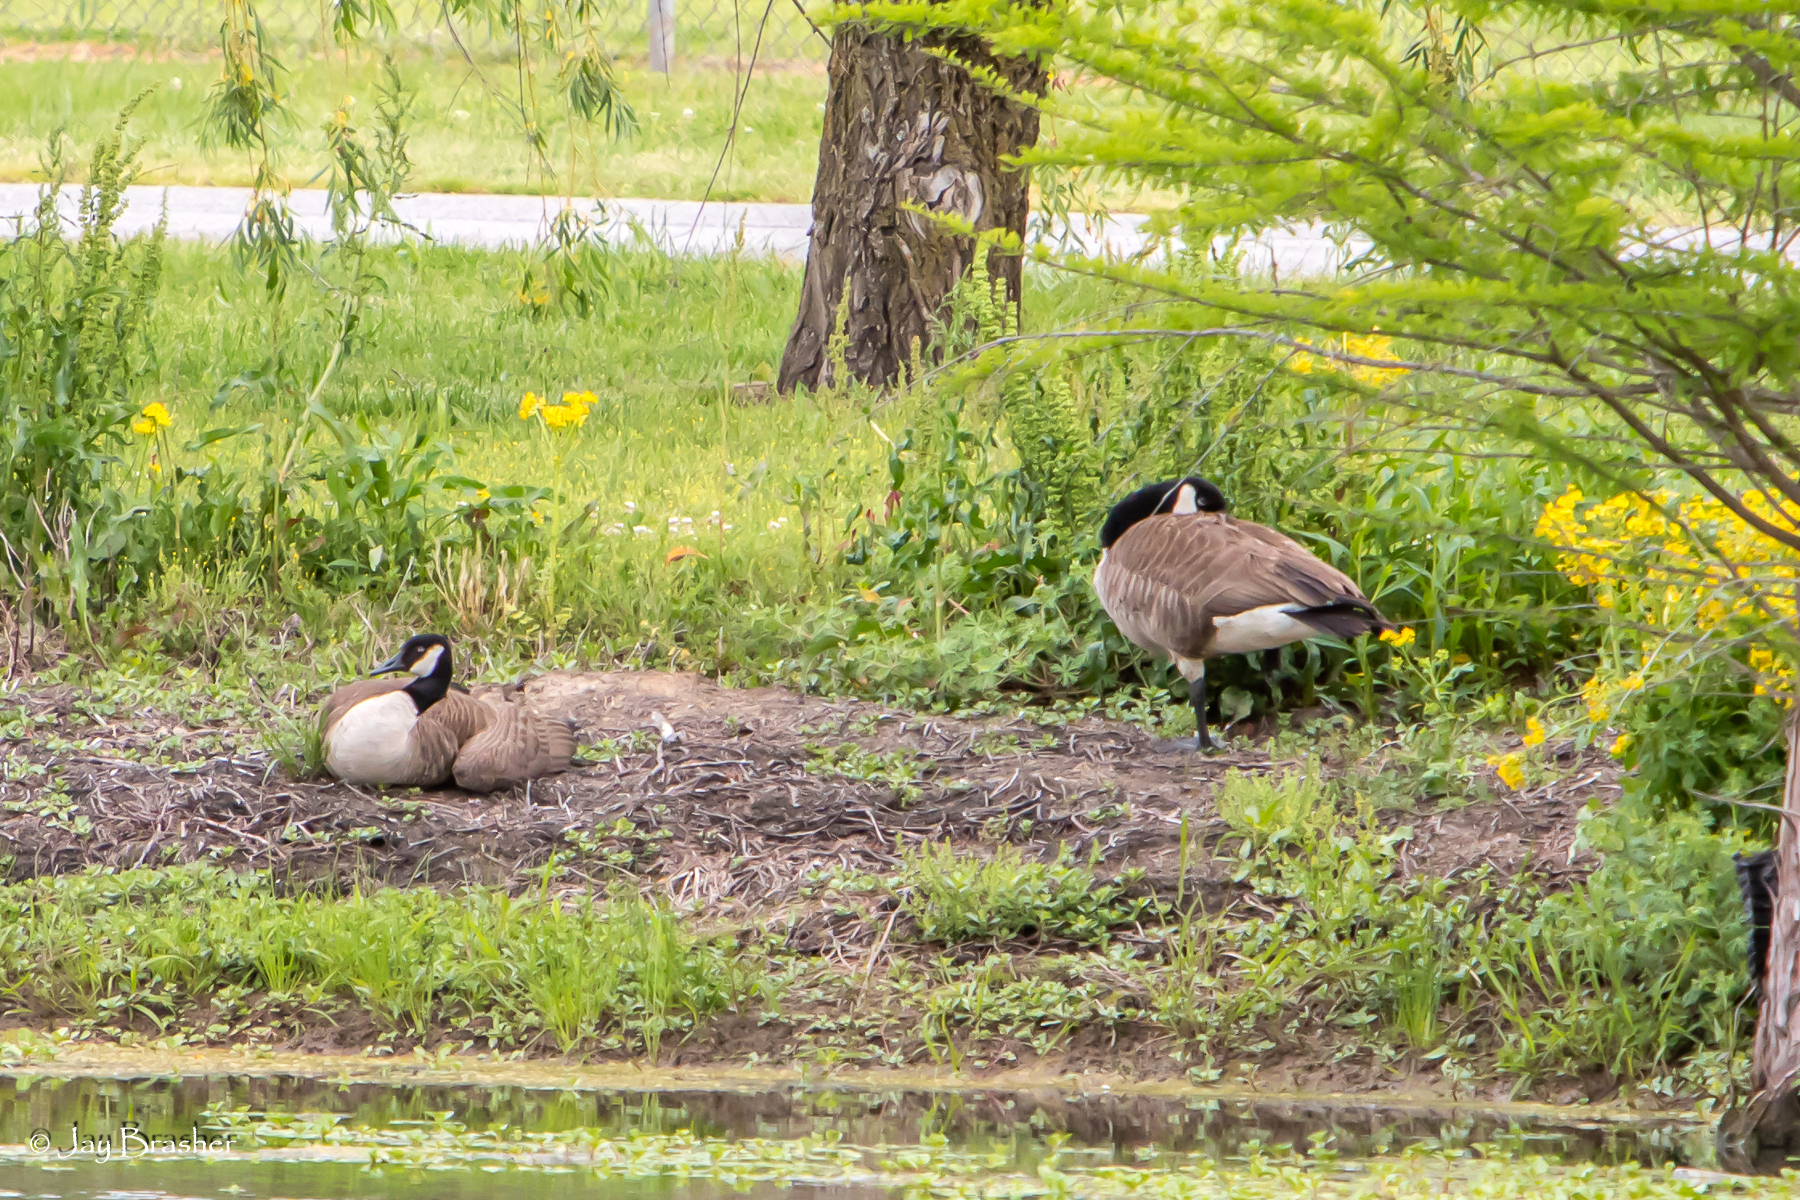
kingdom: Animalia
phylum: Chordata
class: Aves
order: Anseriformes
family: Anatidae
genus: Branta
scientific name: Branta canadensis
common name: Canada goose
